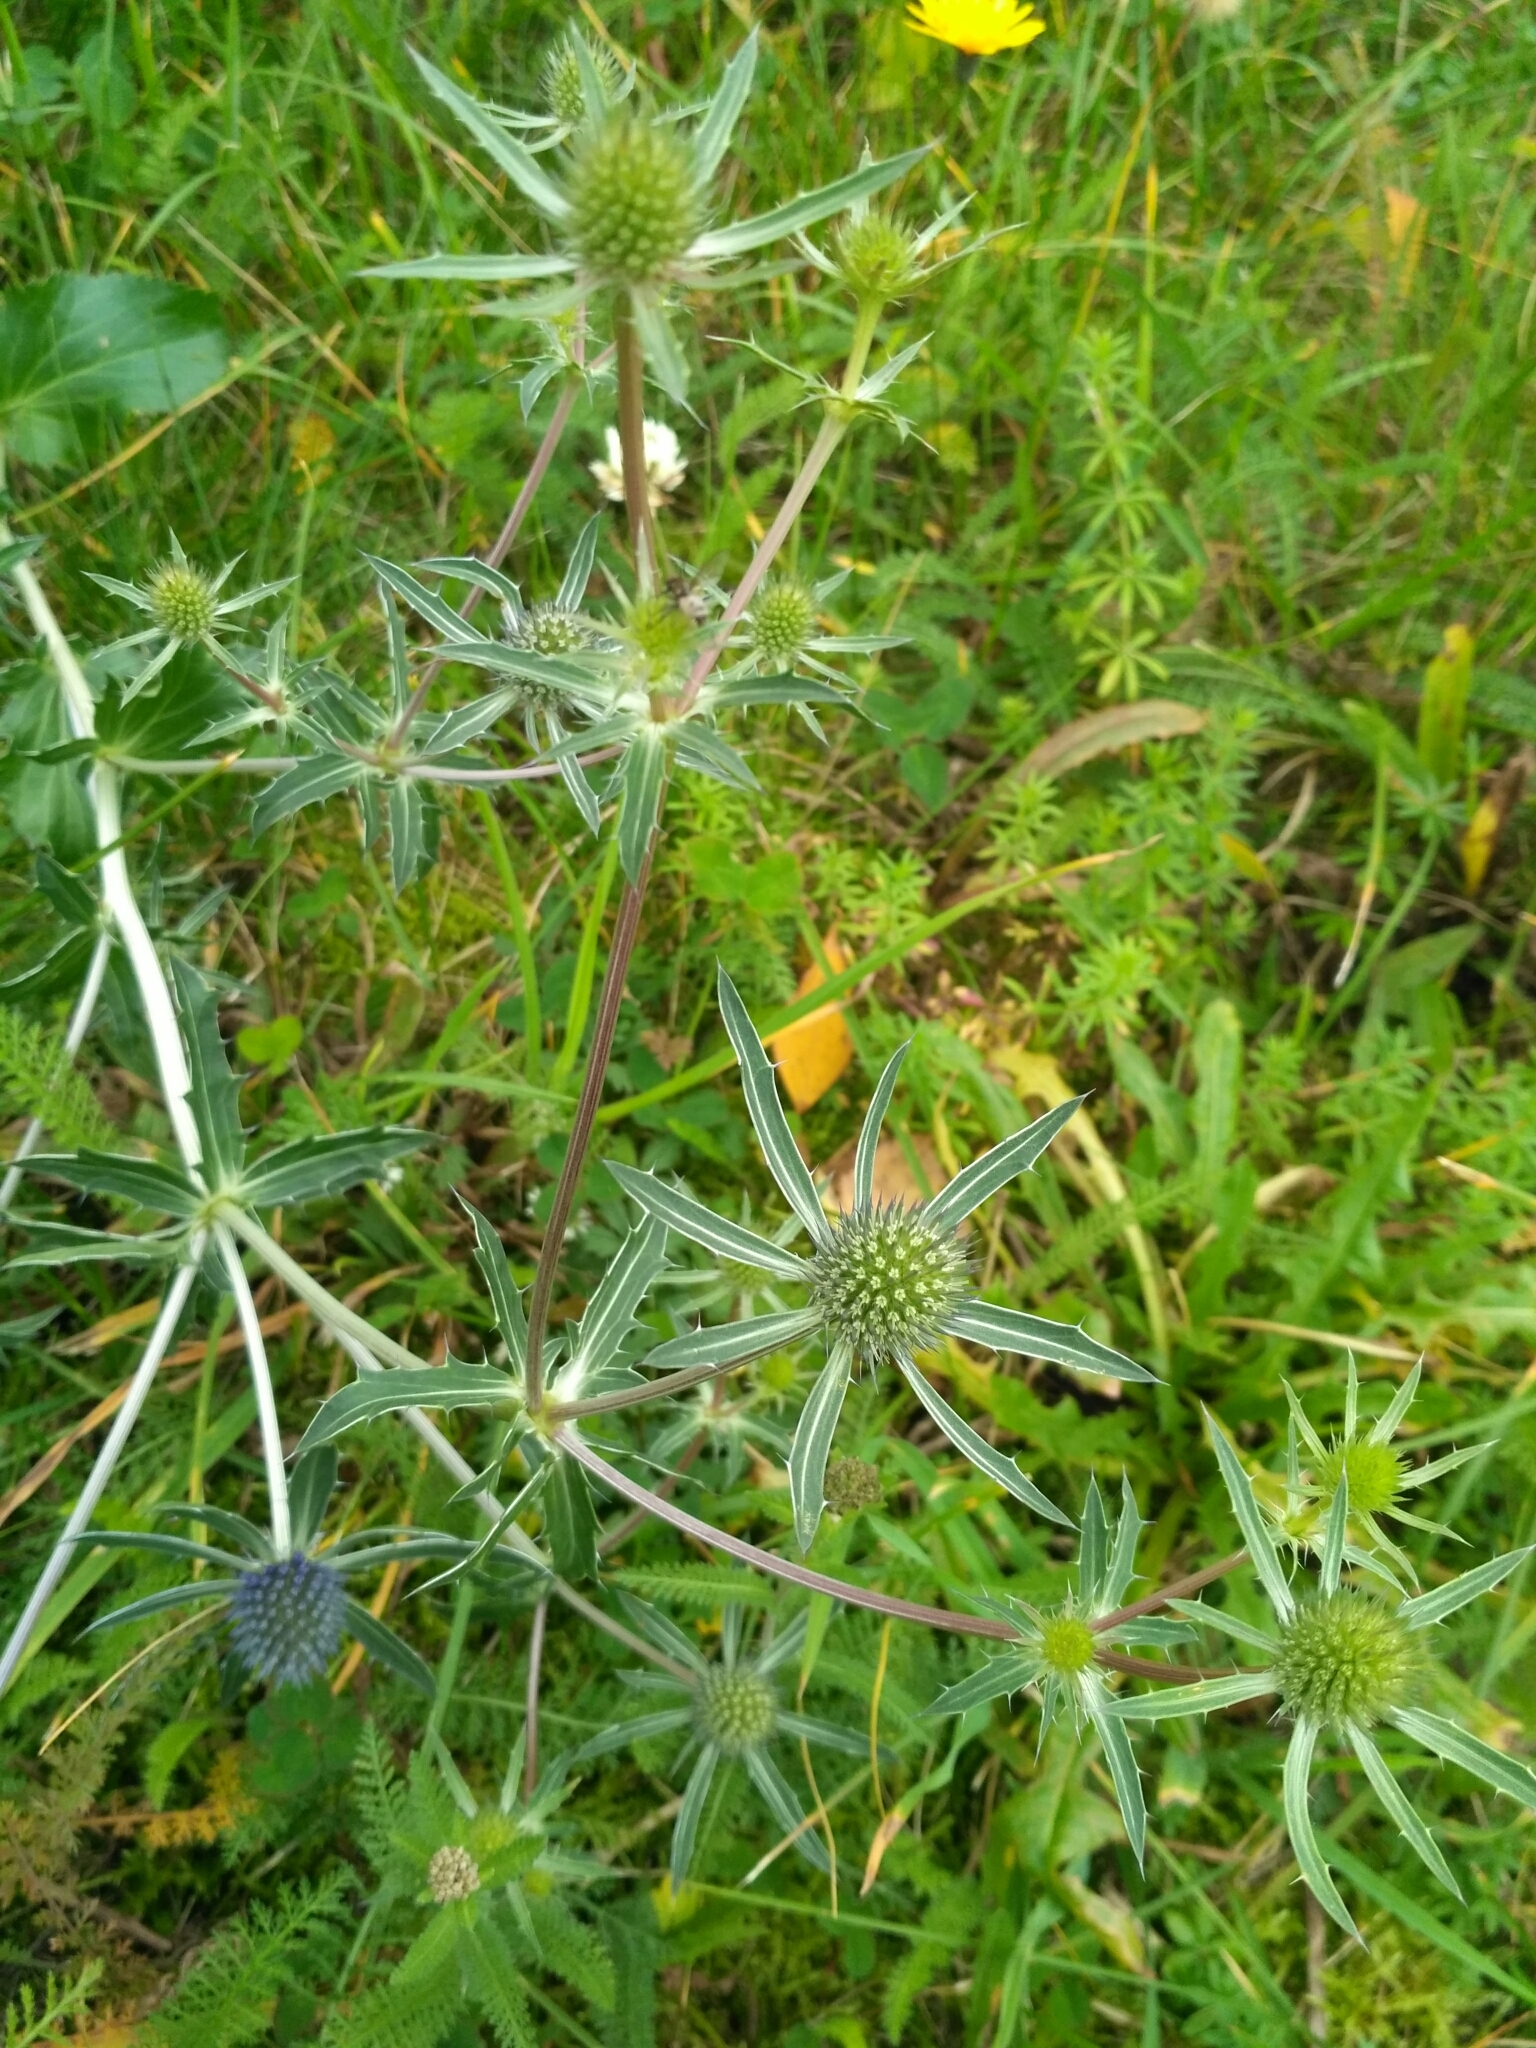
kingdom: Plantae
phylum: Tracheophyta
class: Magnoliopsida
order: Apiales
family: Apiaceae
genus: Eryngium
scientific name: Eryngium planum
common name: Blue eryngo
